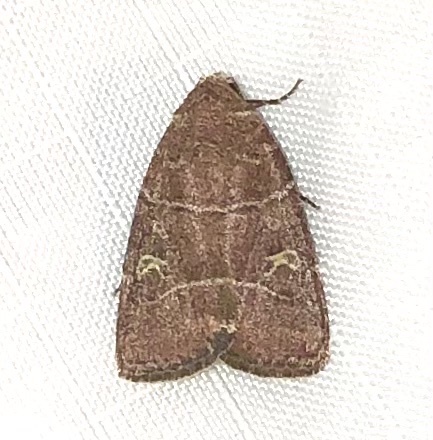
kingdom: Animalia
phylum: Arthropoda
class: Insecta
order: Lepidoptera
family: Noctuidae
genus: Elaphria
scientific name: Elaphria grata
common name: Grateful midget moth
